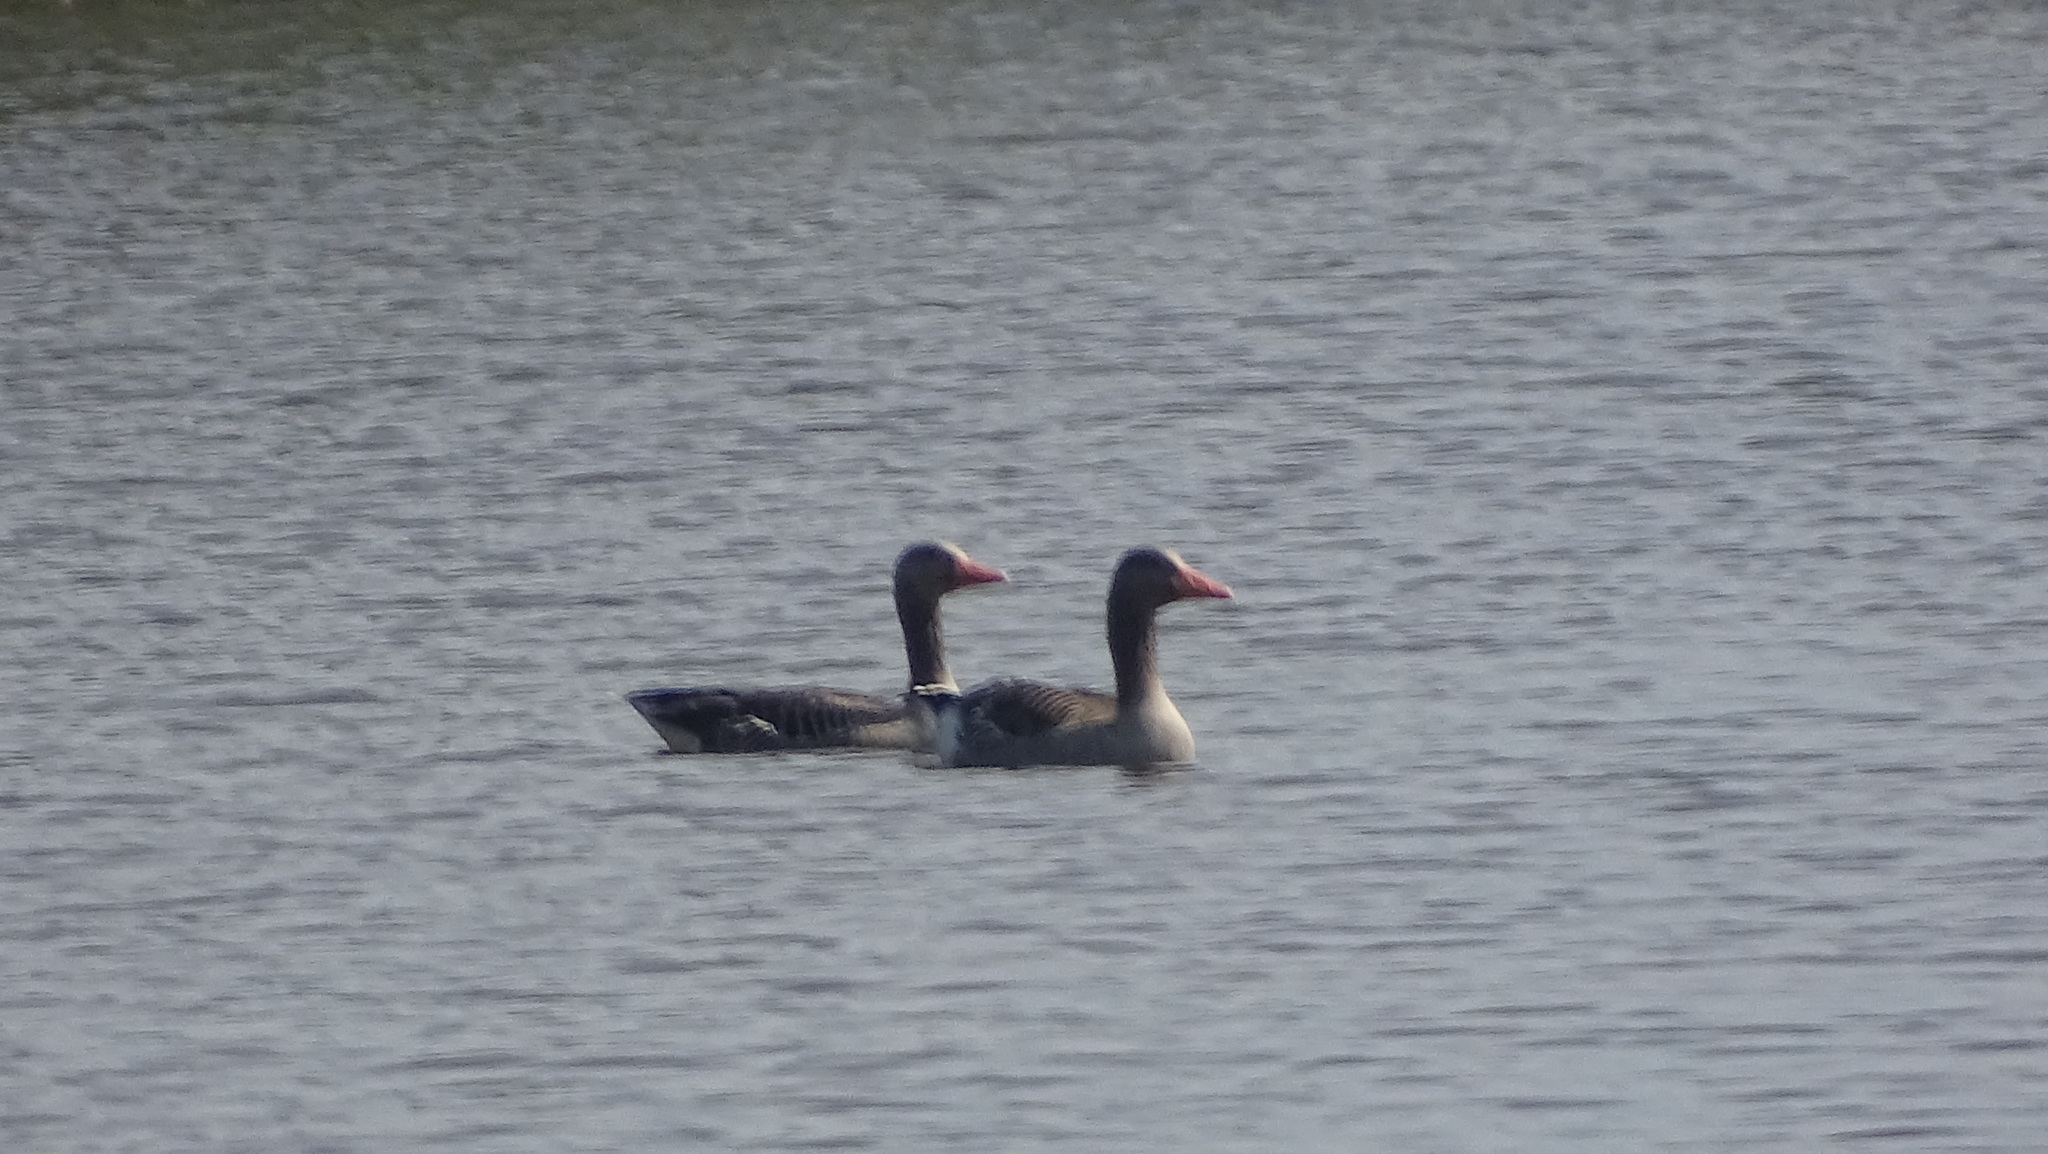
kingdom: Animalia
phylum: Chordata
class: Aves
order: Anseriformes
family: Anatidae
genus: Anser
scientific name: Anser anser
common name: Greylag goose
